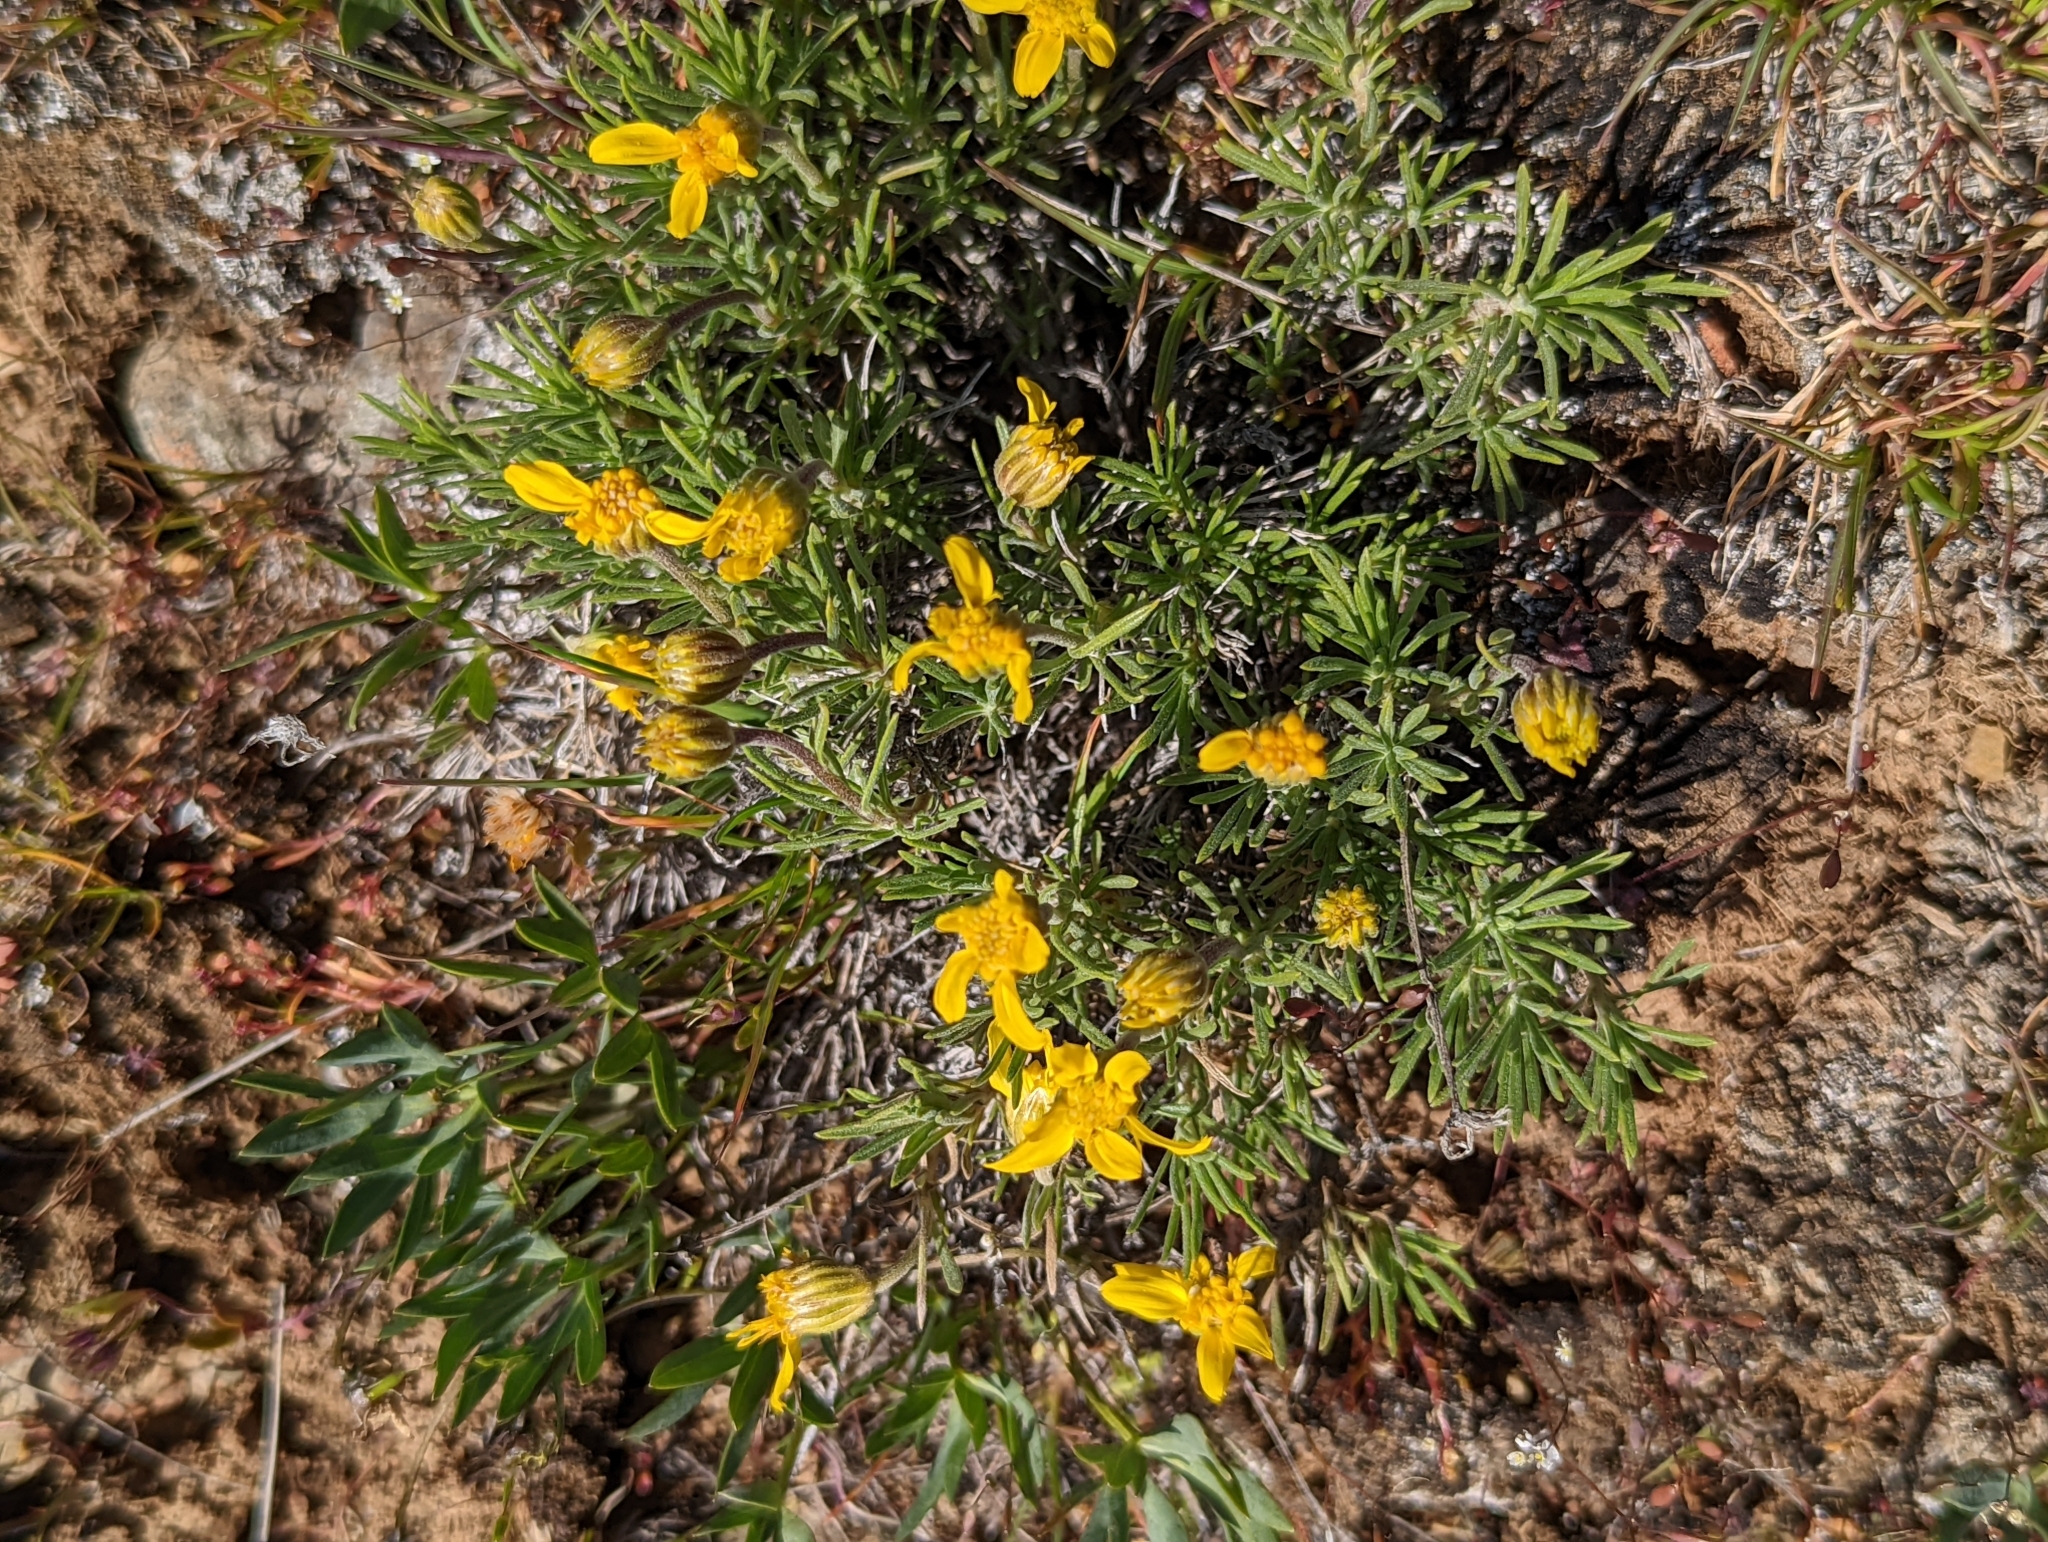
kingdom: Plantae
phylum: Tracheophyta
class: Magnoliopsida
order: Asterales
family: Asteraceae
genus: Nestotus
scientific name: Nestotus stenophyllus
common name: Narrow-leaf mock goldenweed
